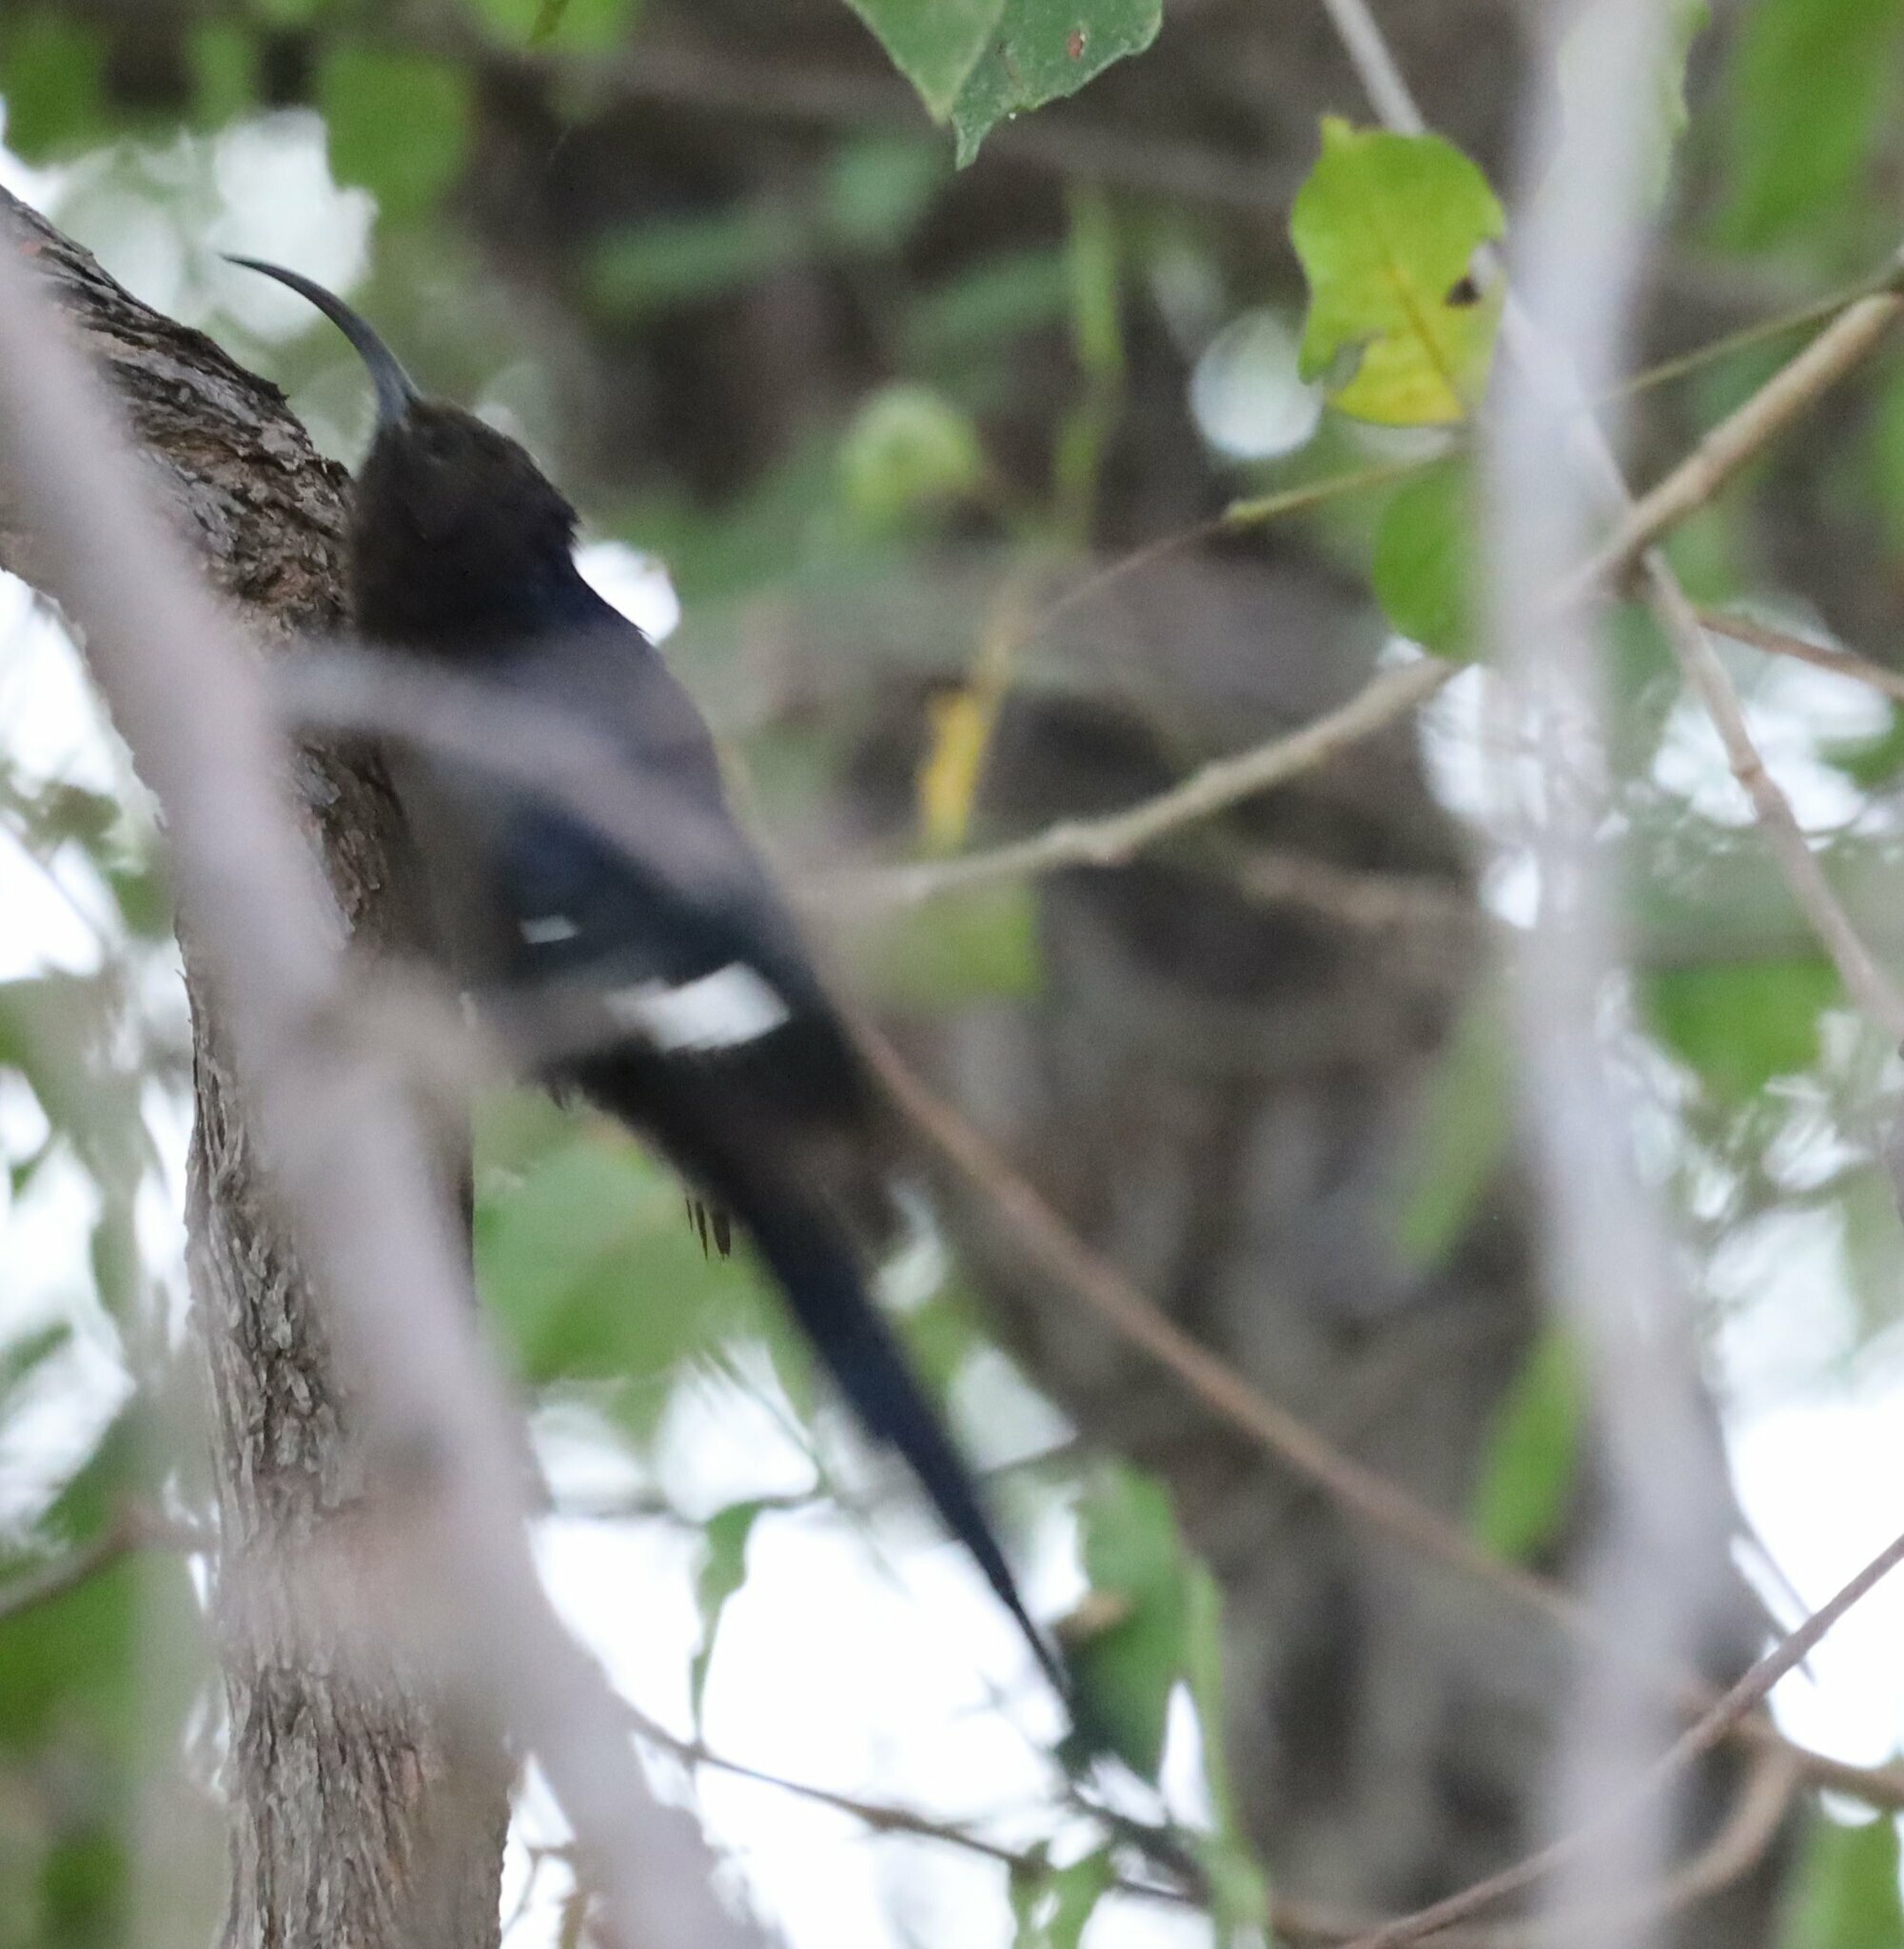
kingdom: Animalia
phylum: Chordata
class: Aves
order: Bucerotiformes
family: Phoeniculidae
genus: Rhinopomastus
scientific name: Rhinopomastus cyanomelas
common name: Common scimitarbill
